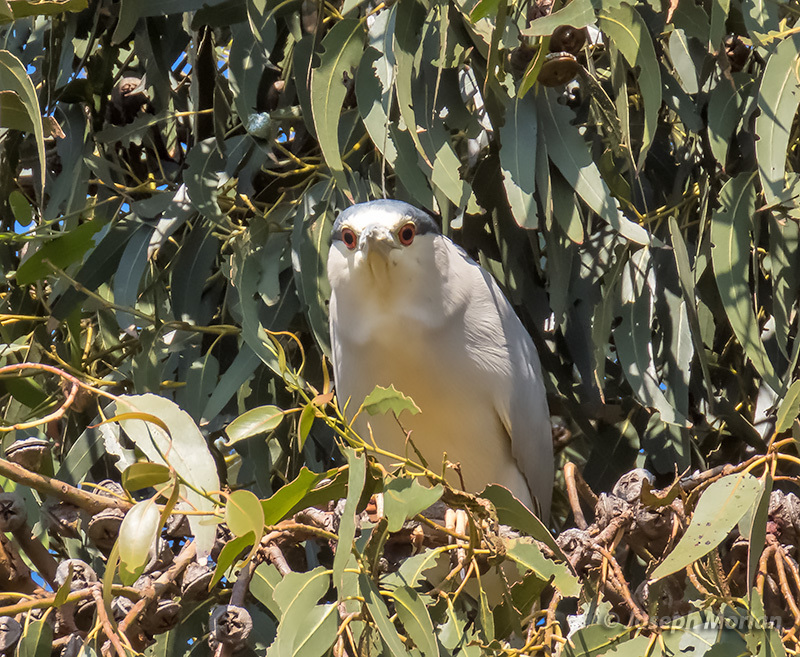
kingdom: Animalia
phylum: Chordata
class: Aves
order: Pelecaniformes
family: Ardeidae
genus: Nycticorax
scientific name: Nycticorax nycticorax
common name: Black-crowned night heron
